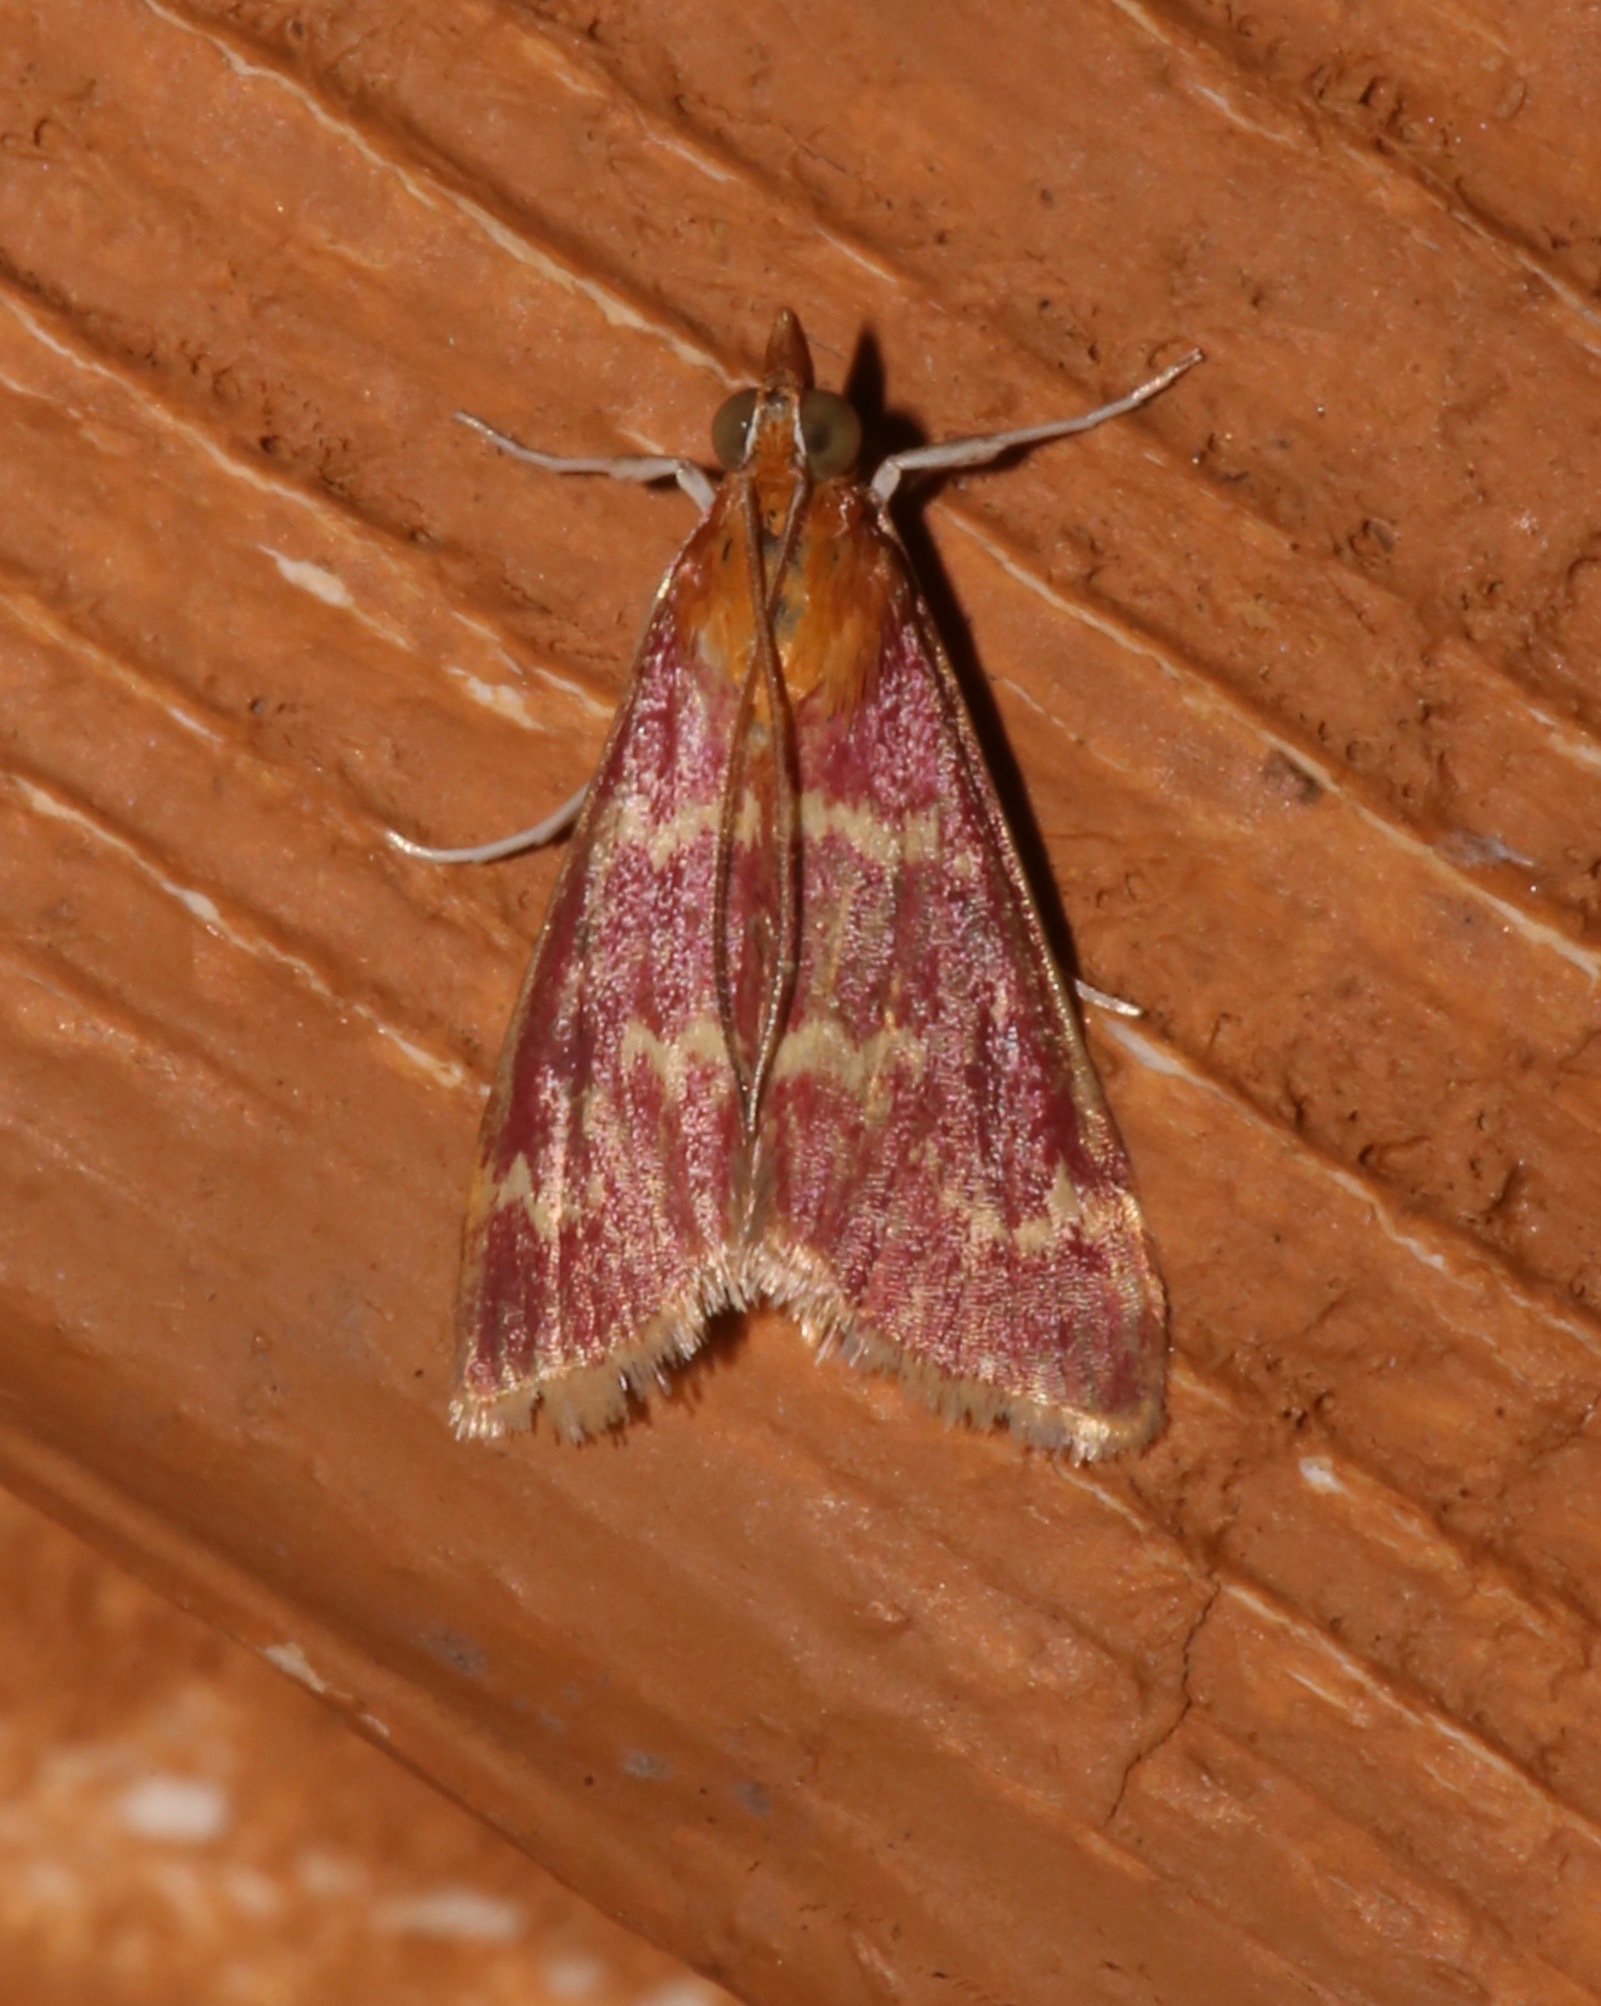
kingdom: Animalia
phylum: Arthropoda
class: Insecta
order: Lepidoptera
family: Crambidae
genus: Pyrausta
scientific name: Pyrausta signatalis
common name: Raspberry pyrausta moth
